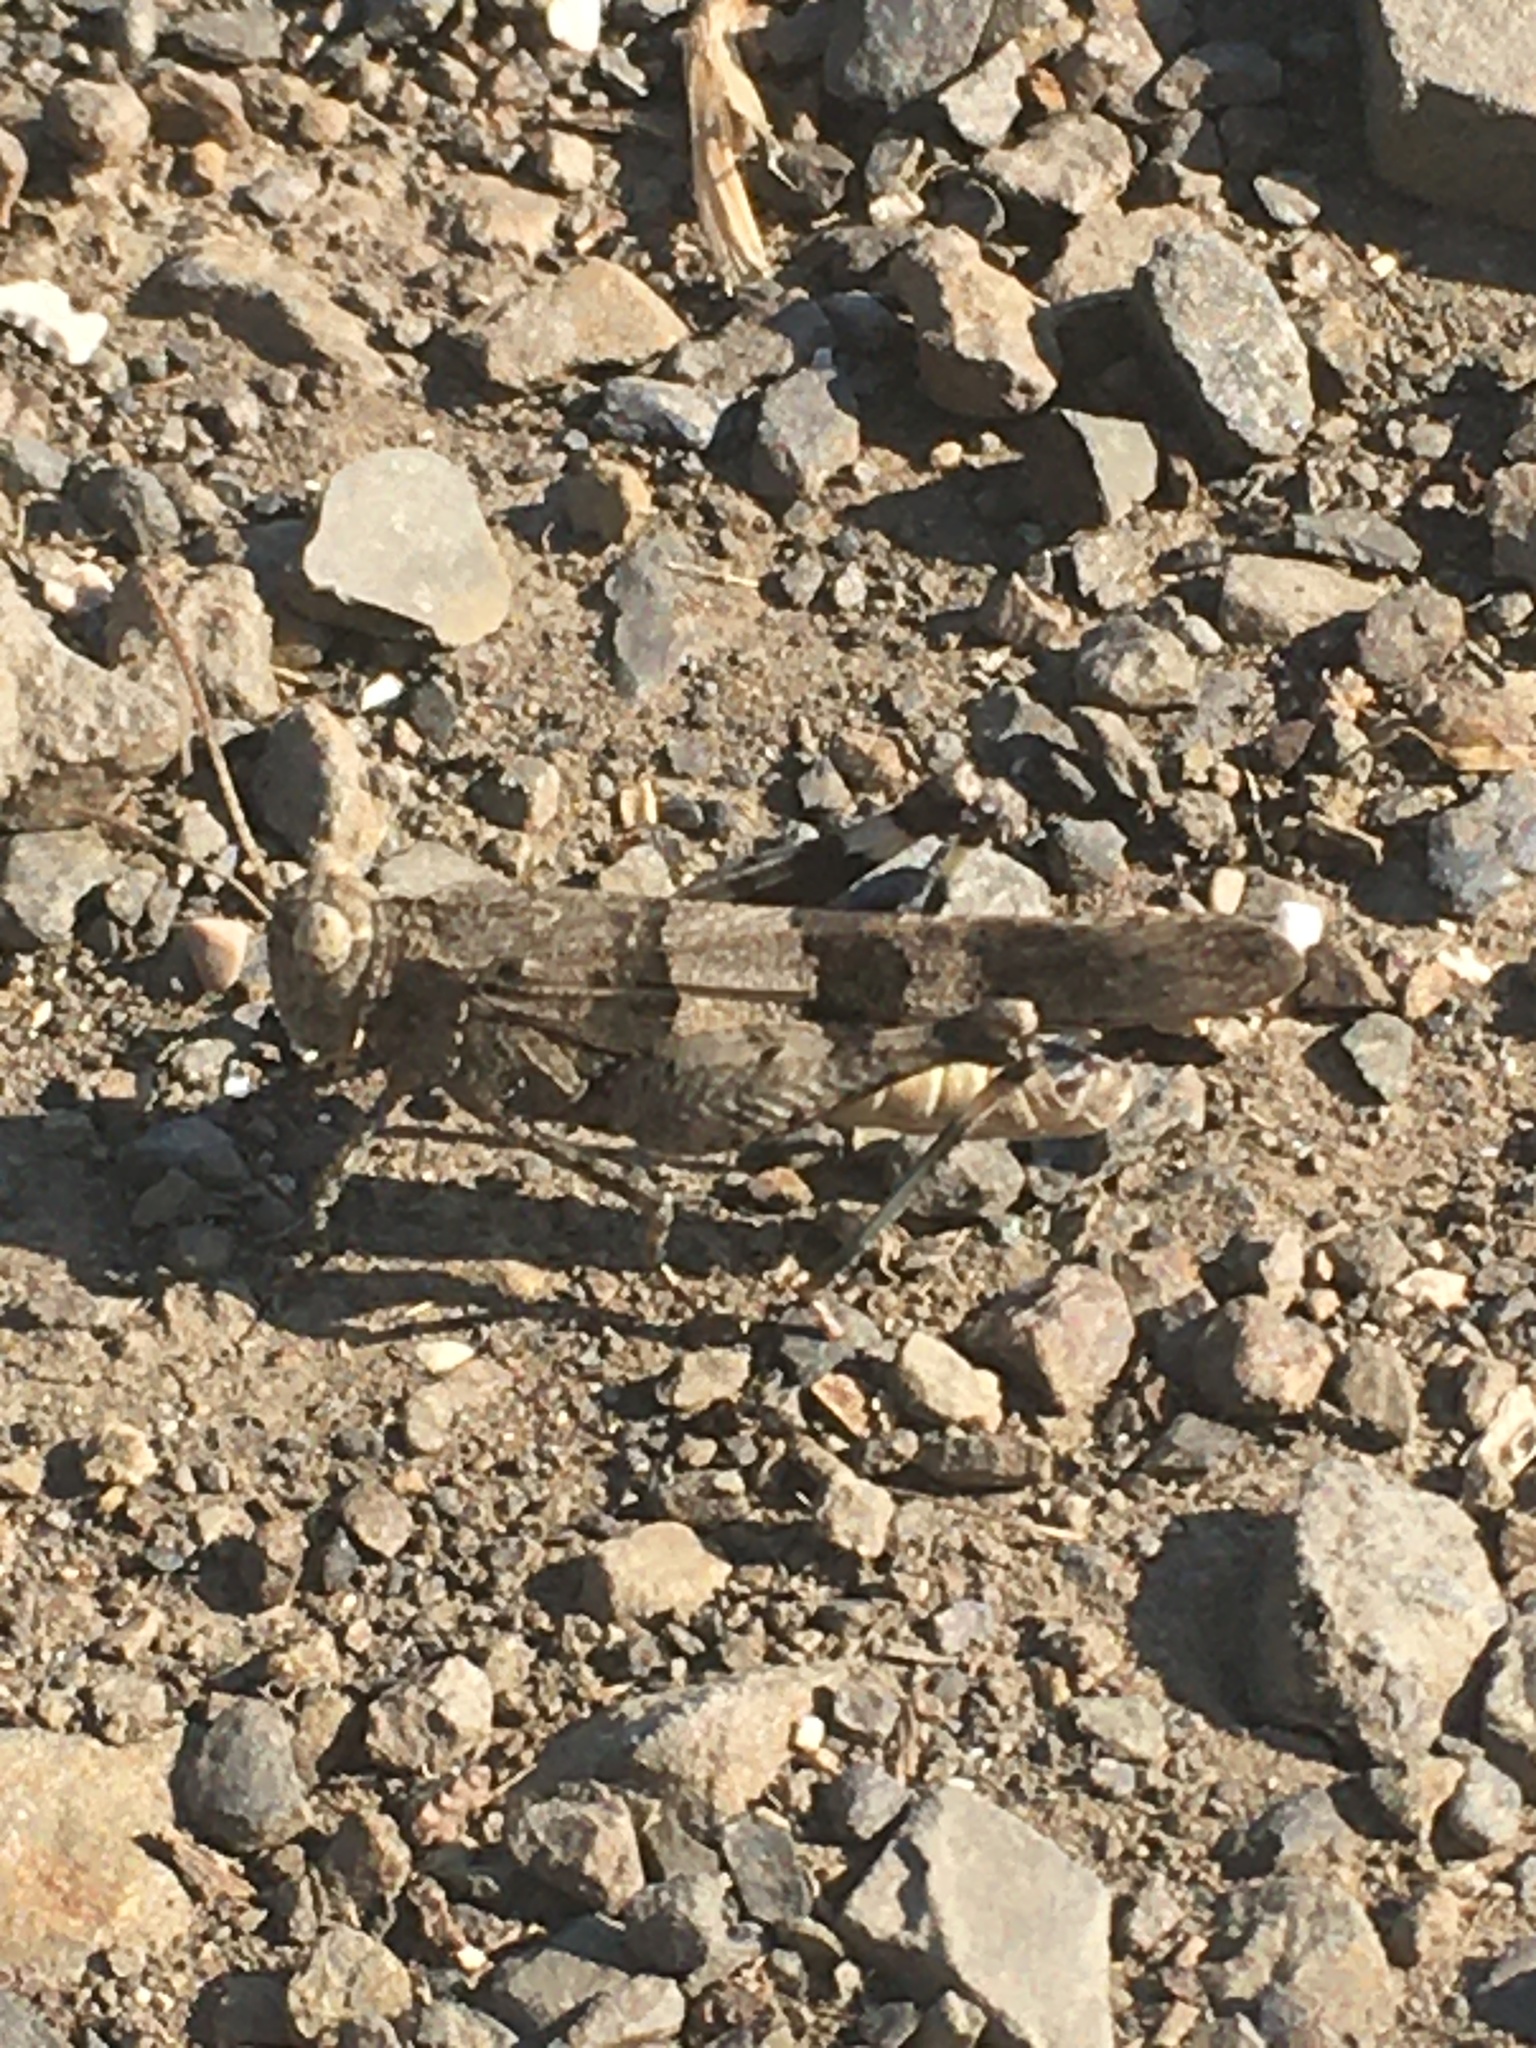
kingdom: Animalia
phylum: Arthropoda
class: Insecta
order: Orthoptera
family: Acrididae
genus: Oedipoda
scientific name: Oedipoda caerulescens
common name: Blue-winged grasshopper
